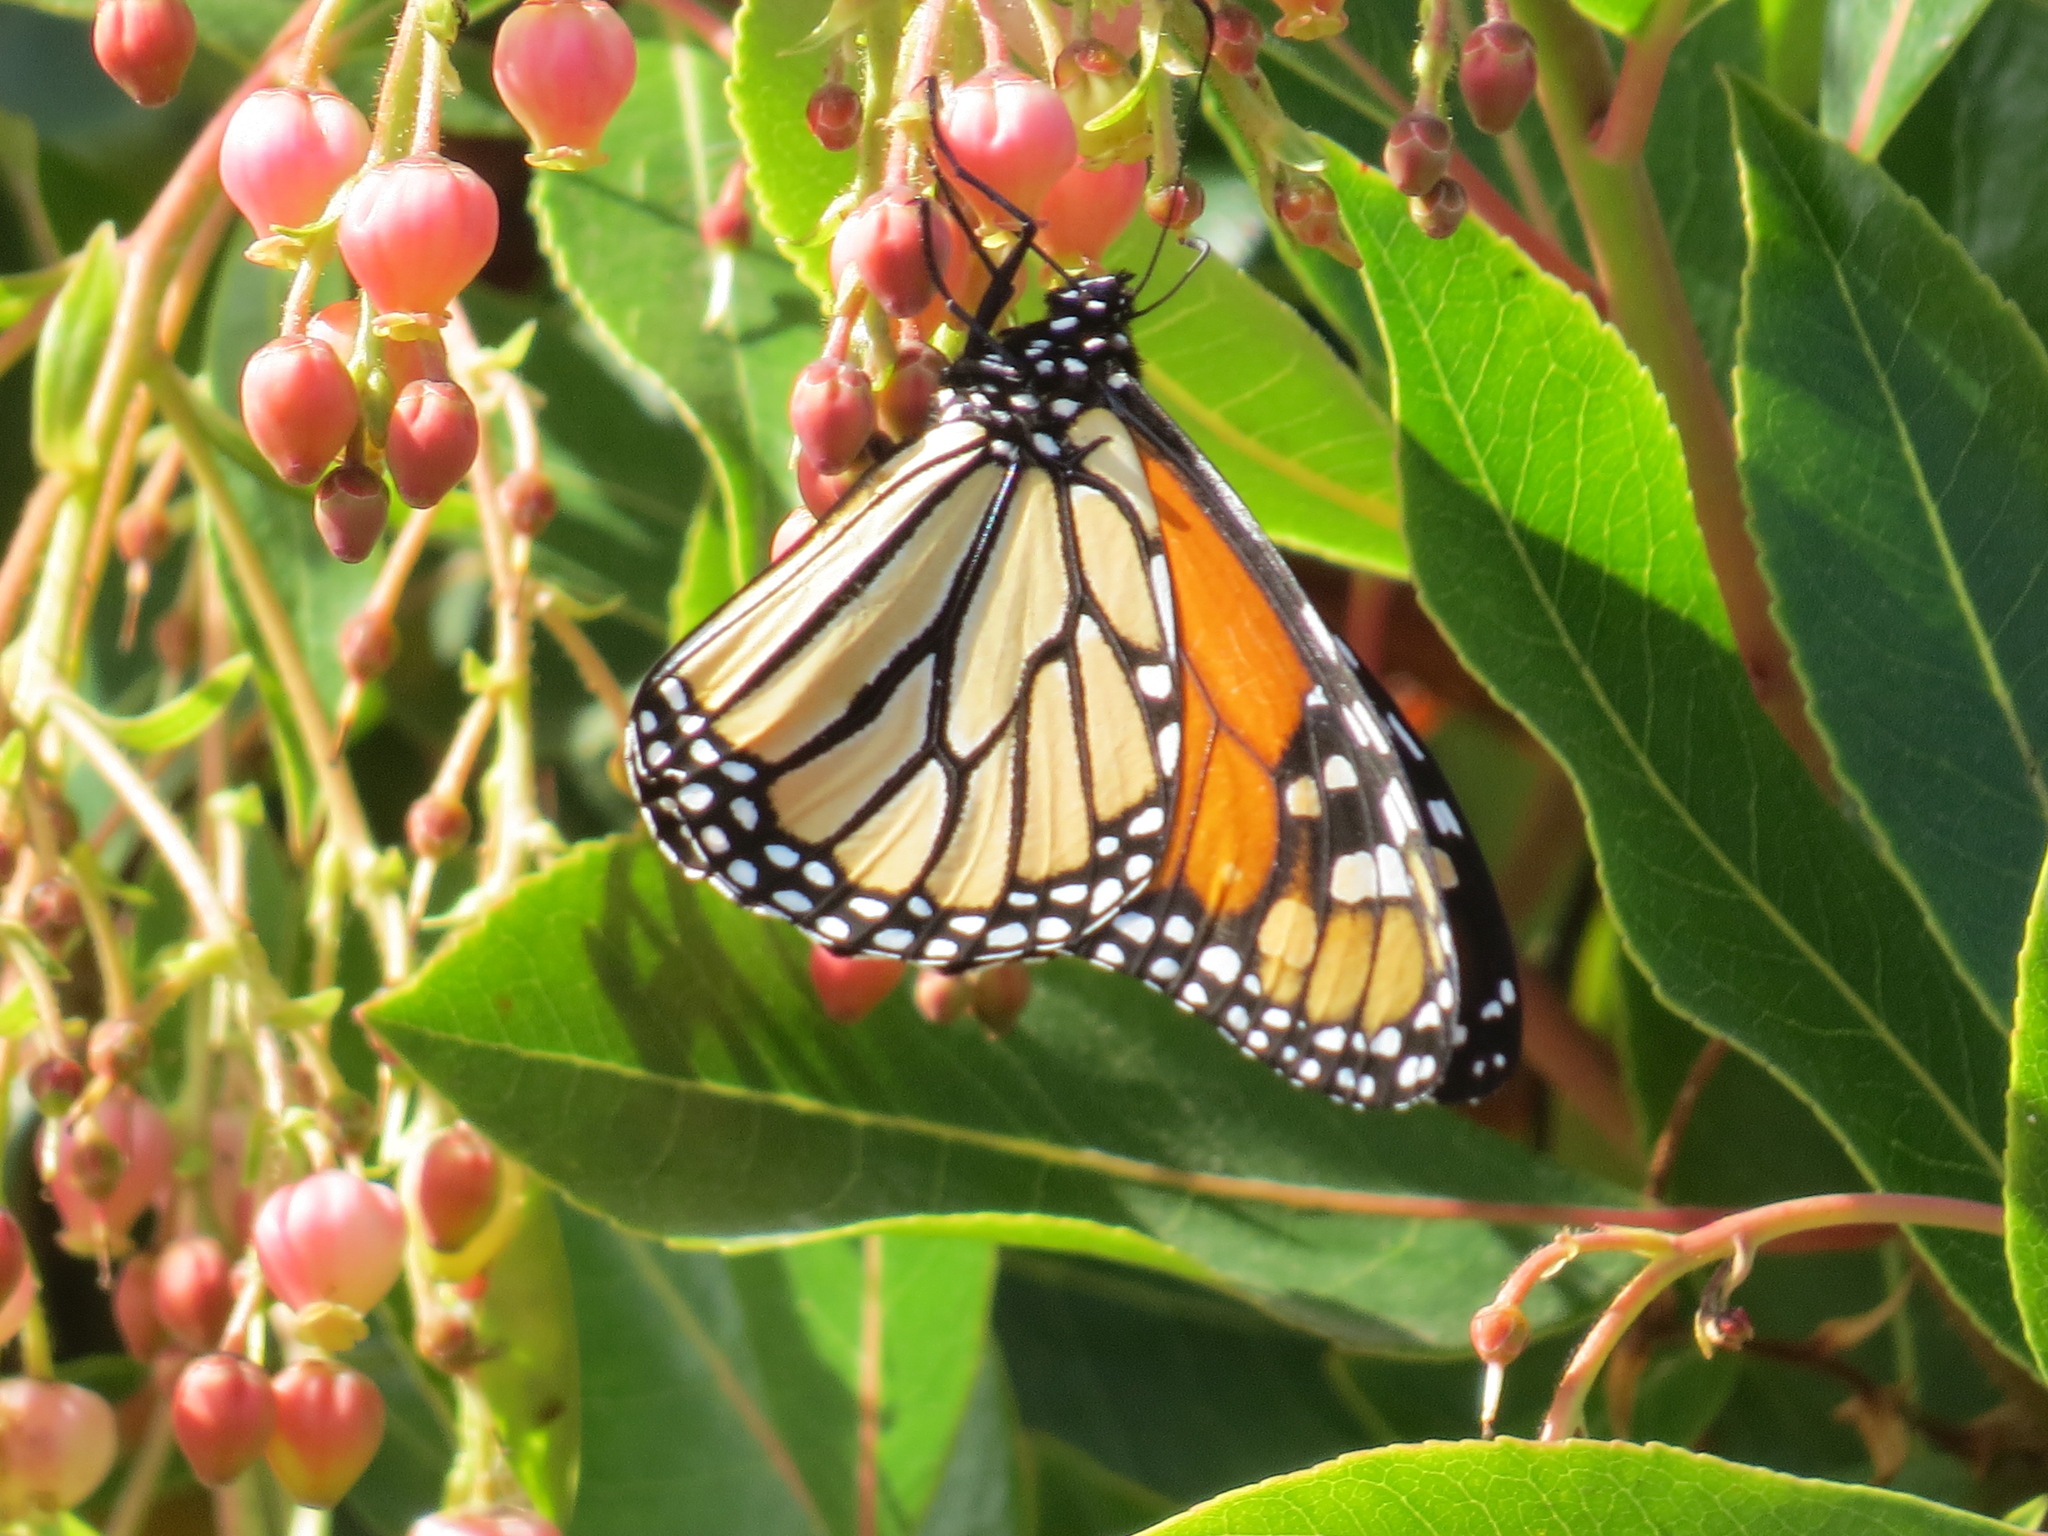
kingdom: Animalia
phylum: Arthropoda
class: Insecta
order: Lepidoptera
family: Nymphalidae
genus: Danaus
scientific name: Danaus plexippus
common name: Monarch
